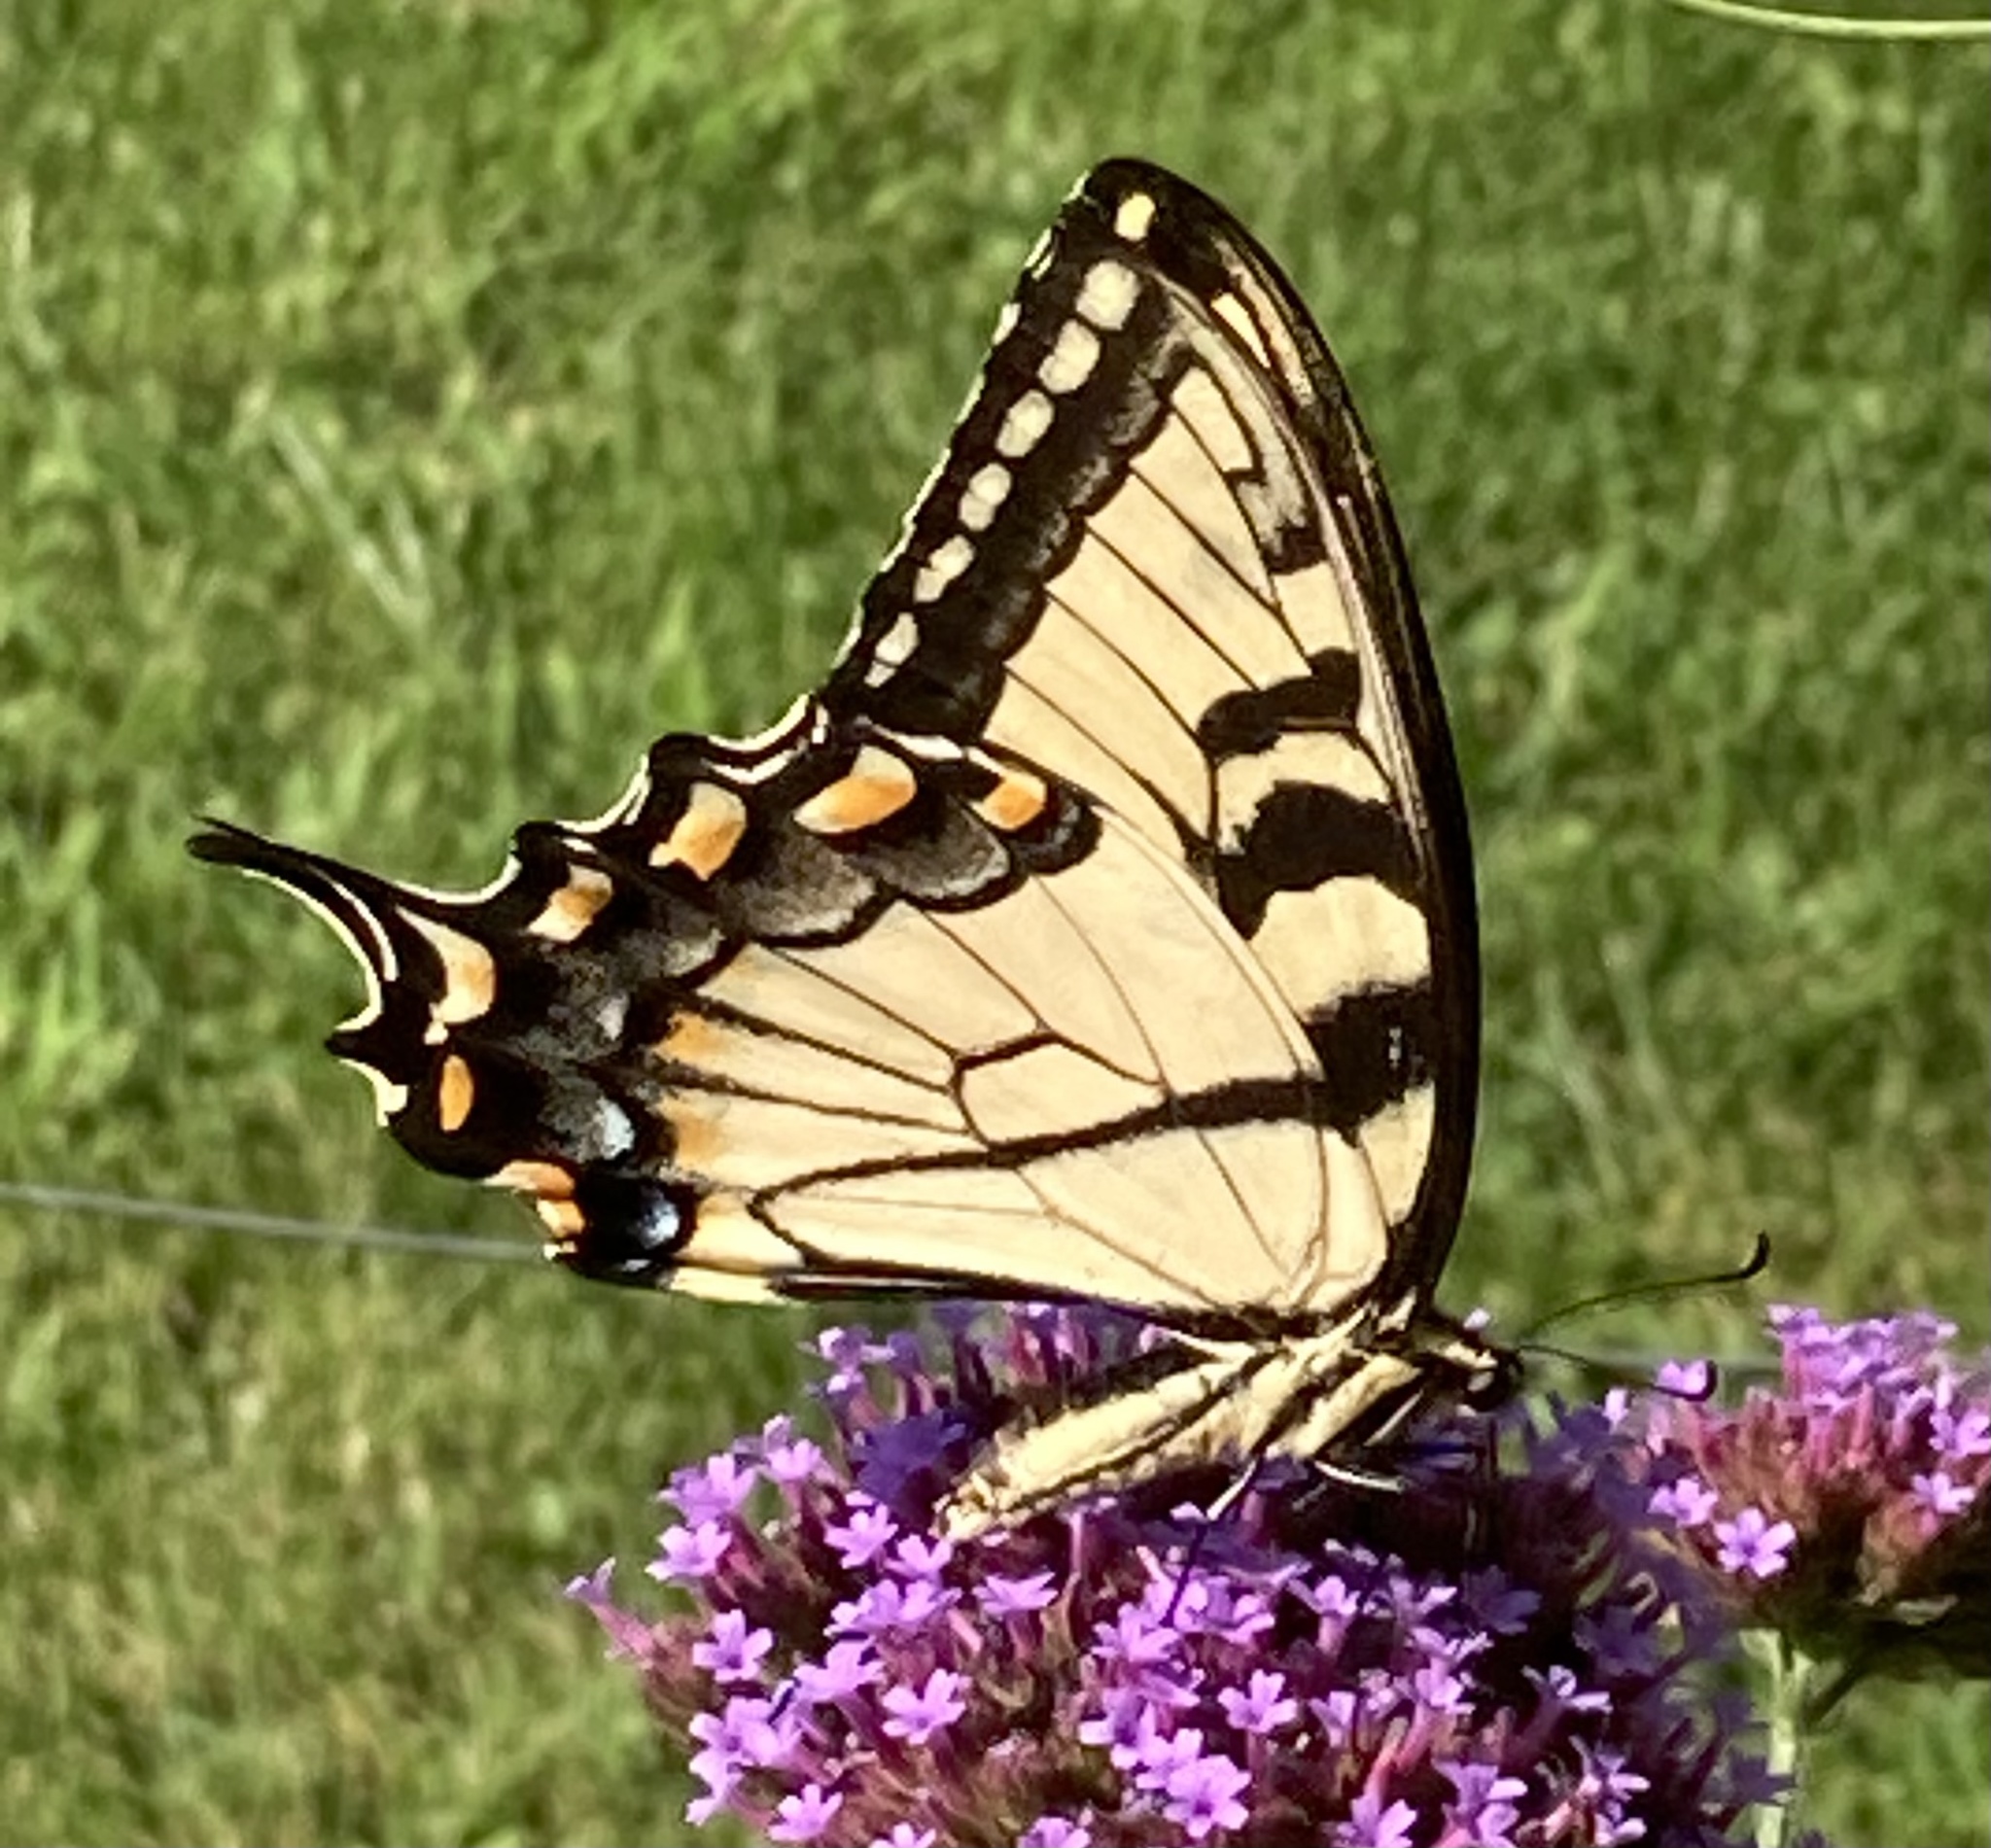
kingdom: Animalia
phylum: Arthropoda
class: Insecta
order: Lepidoptera
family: Papilionidae
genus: Papilio
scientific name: Papilio glaucus
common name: Tiger swallowtail
